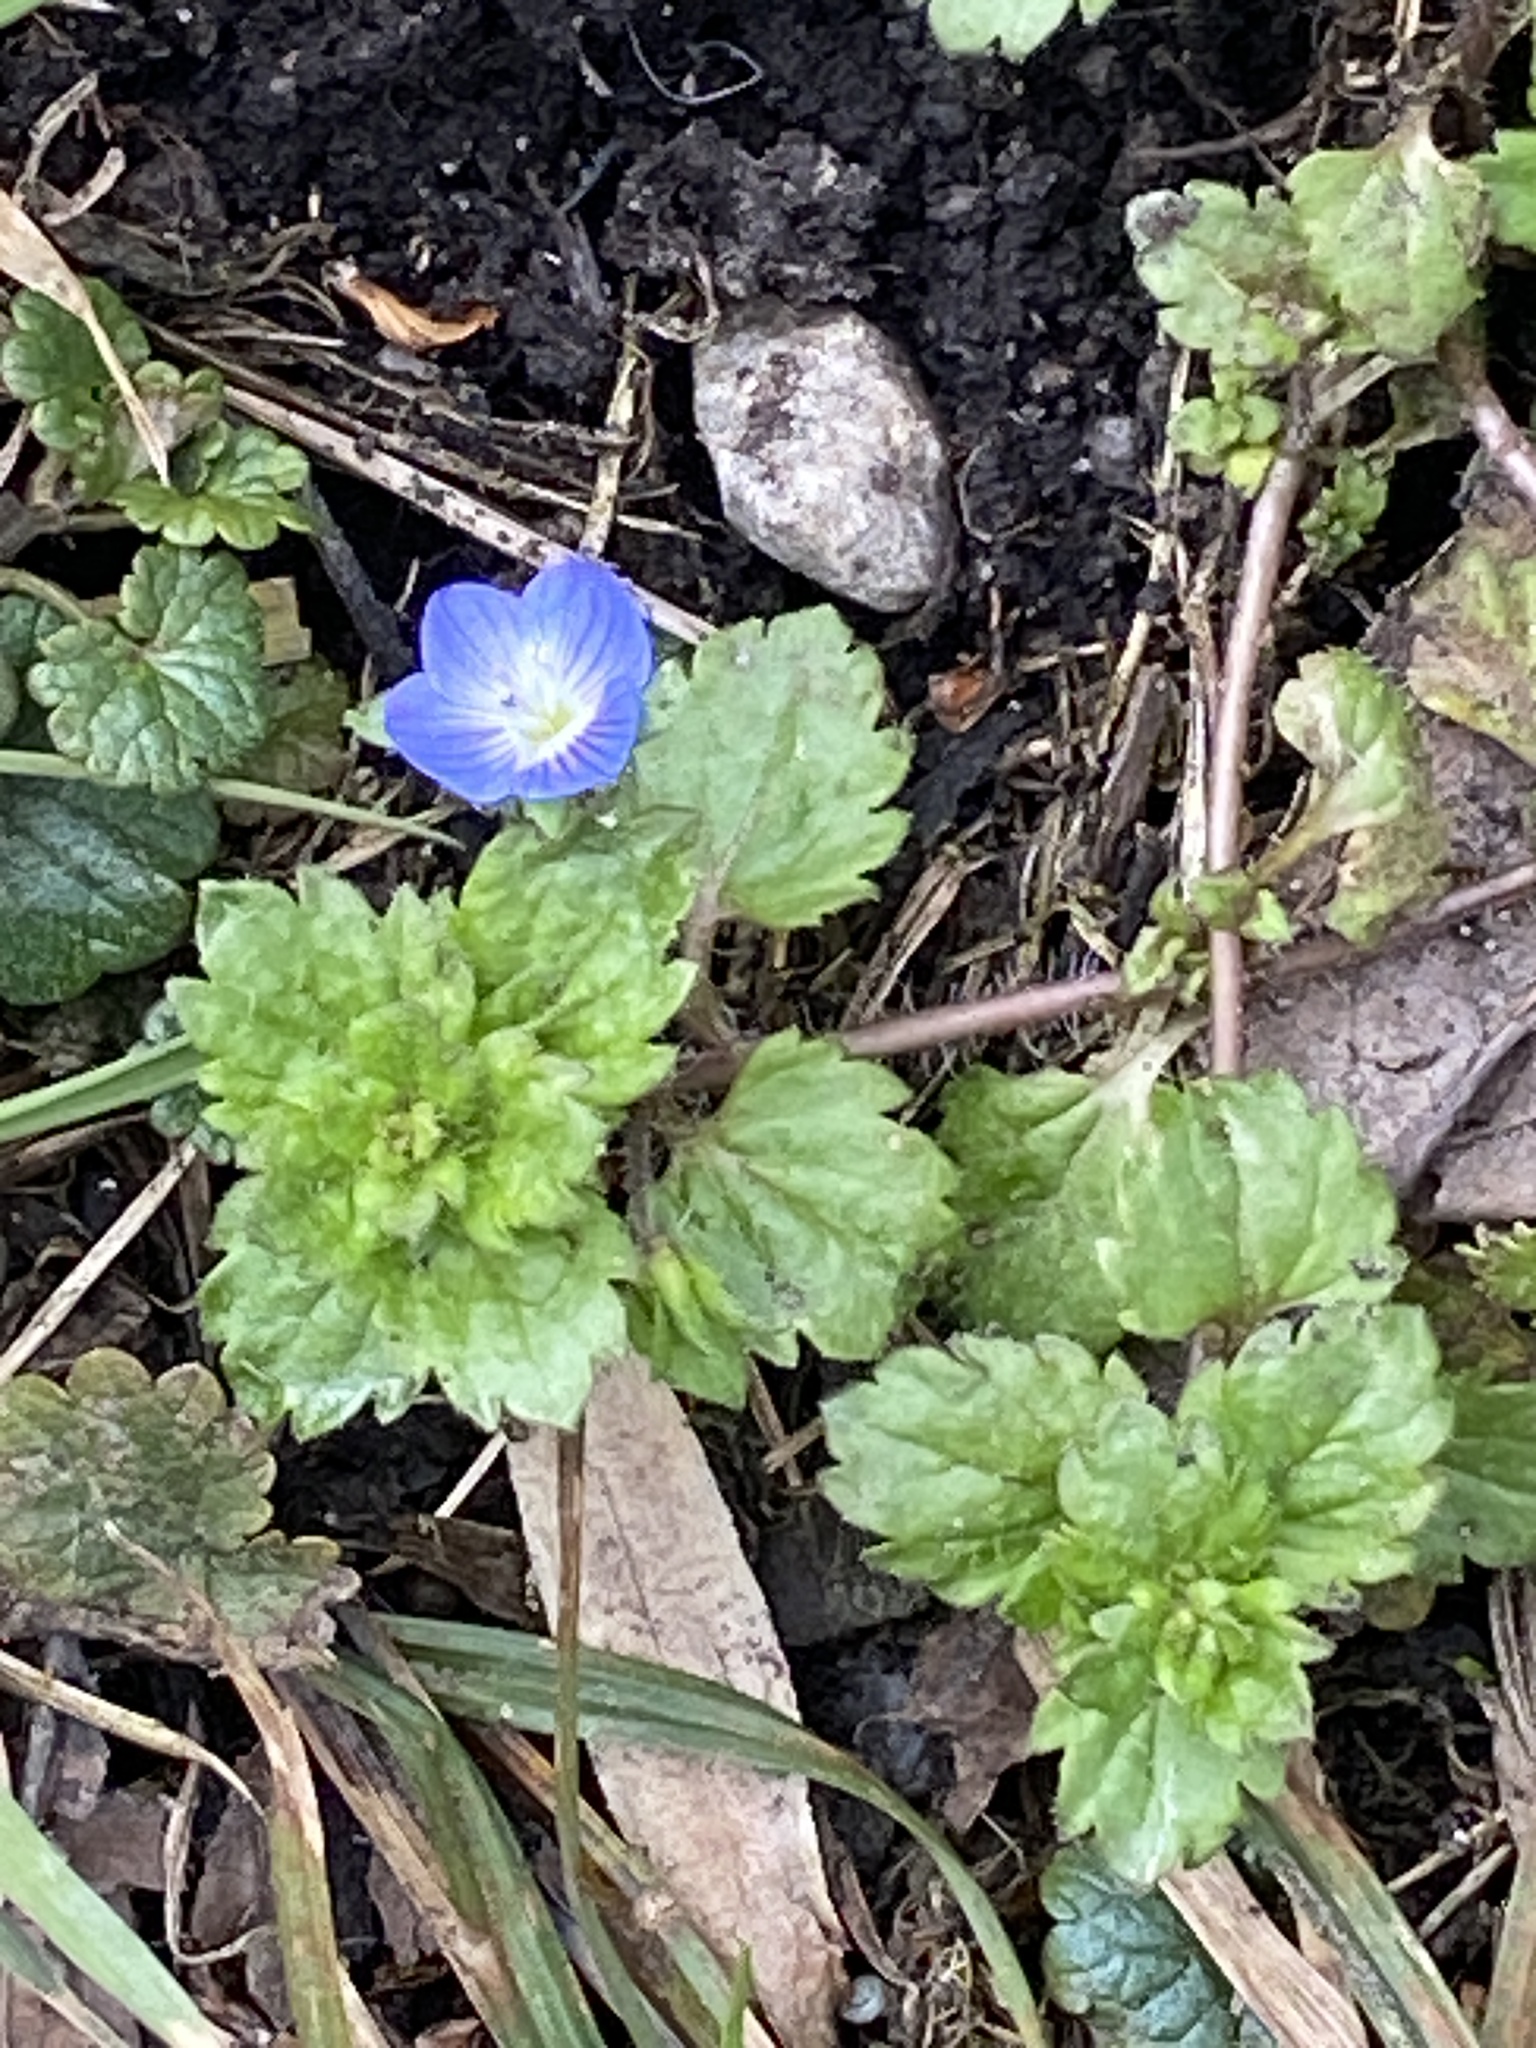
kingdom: Plantae
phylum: Tracheophyta
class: Magnoliopsida
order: Lamiales
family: Plantaginaceae
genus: Veronica
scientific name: Veronica persica
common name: Common field-speedwell
